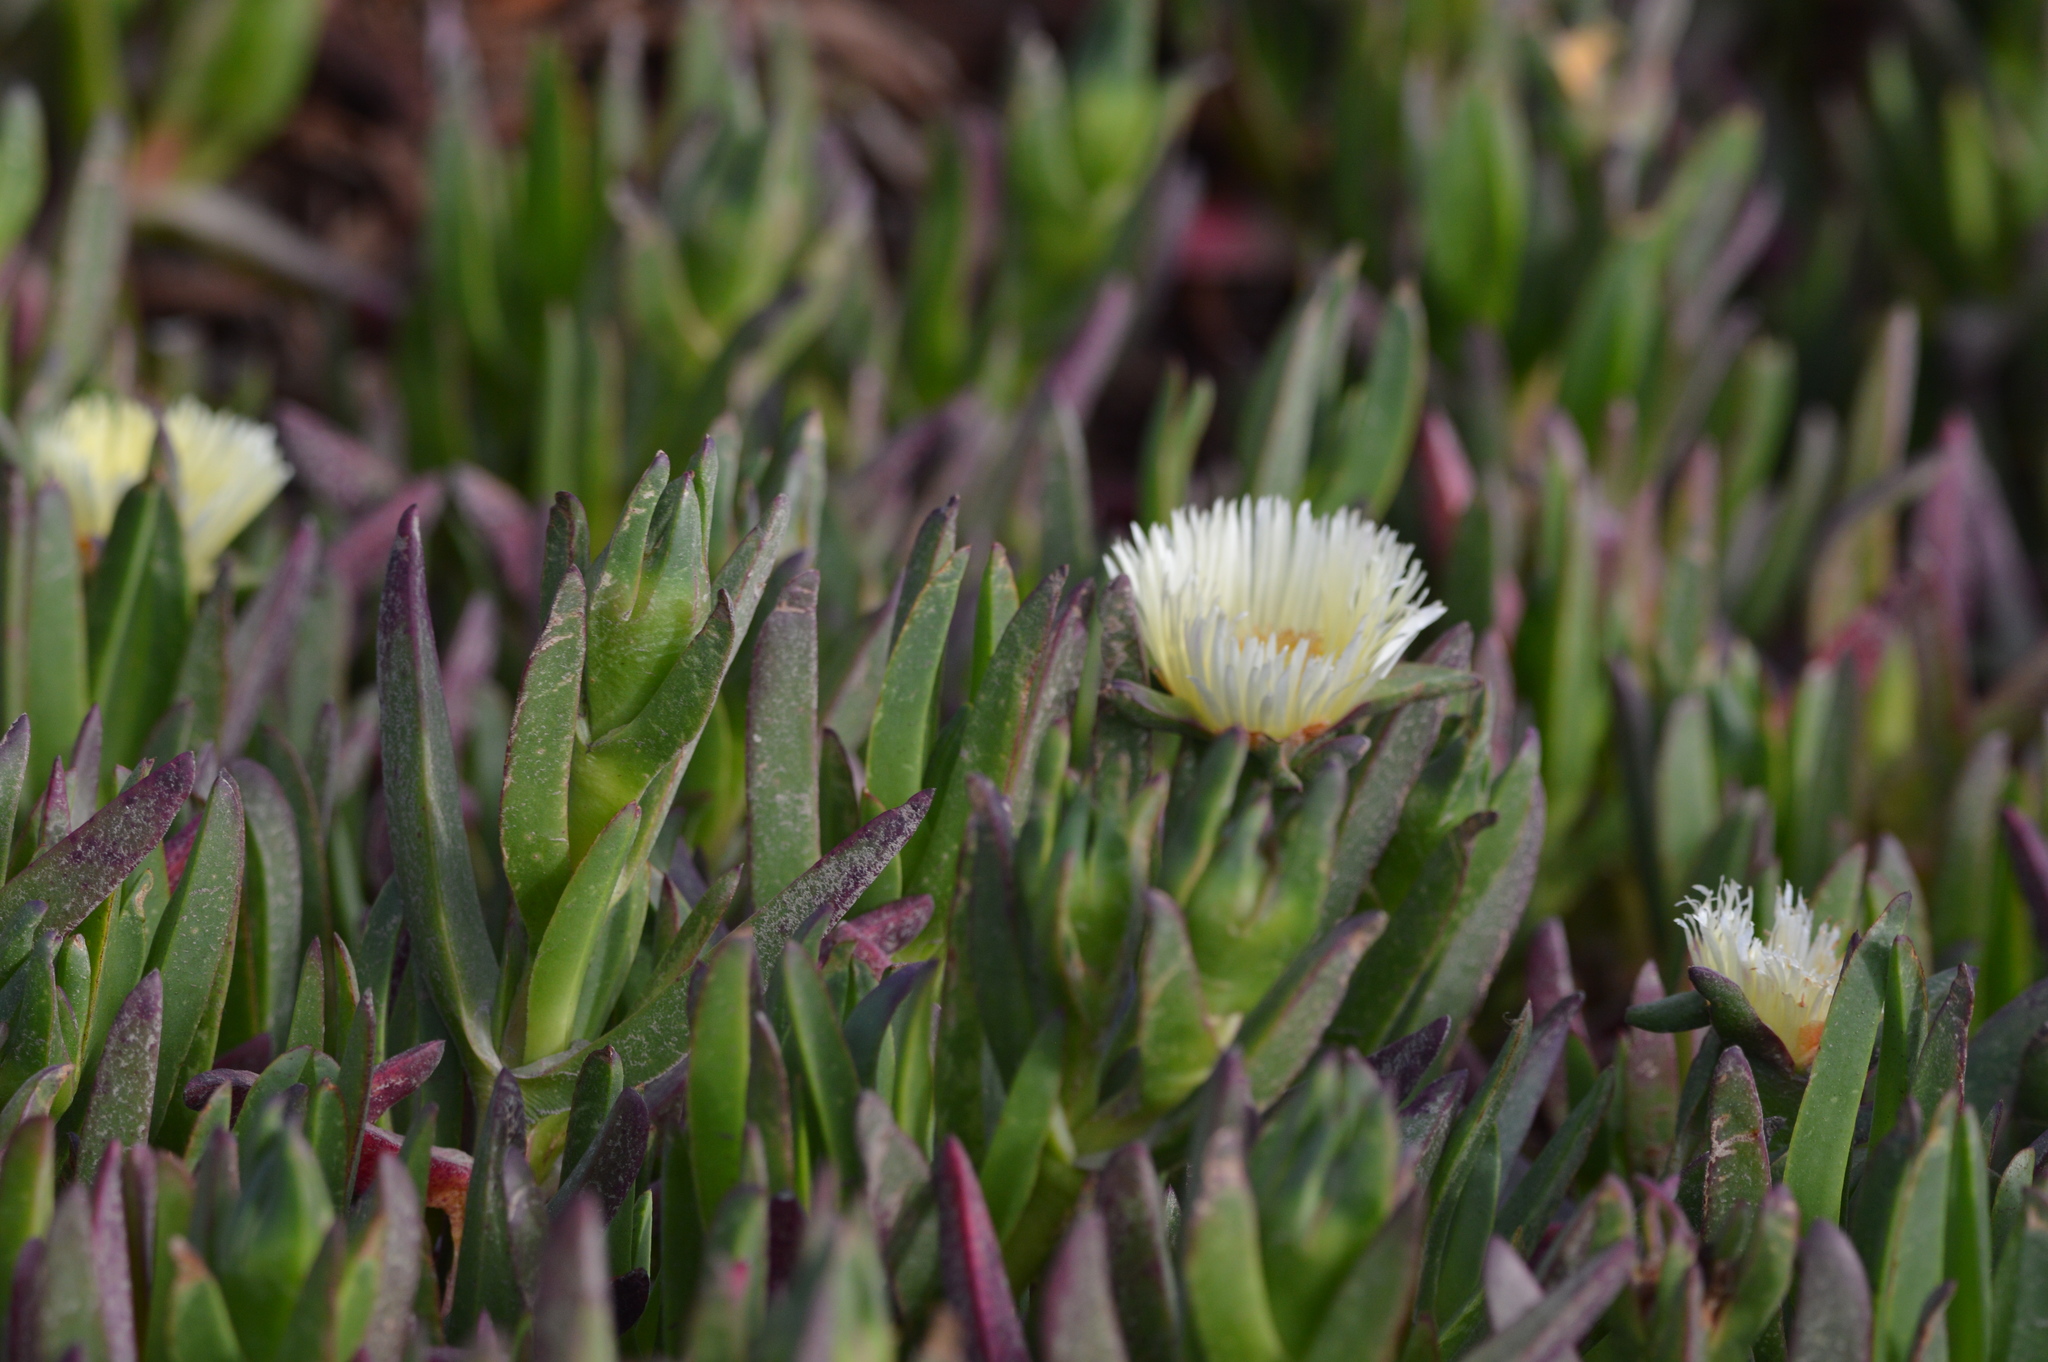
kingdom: Plantae
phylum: Tracheophyta
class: Magnoliopsida
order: Caryophyllales
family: Aizoaceae
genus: Carpobrotus
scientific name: Carpobrotus edulis
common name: Hottentot-fig
